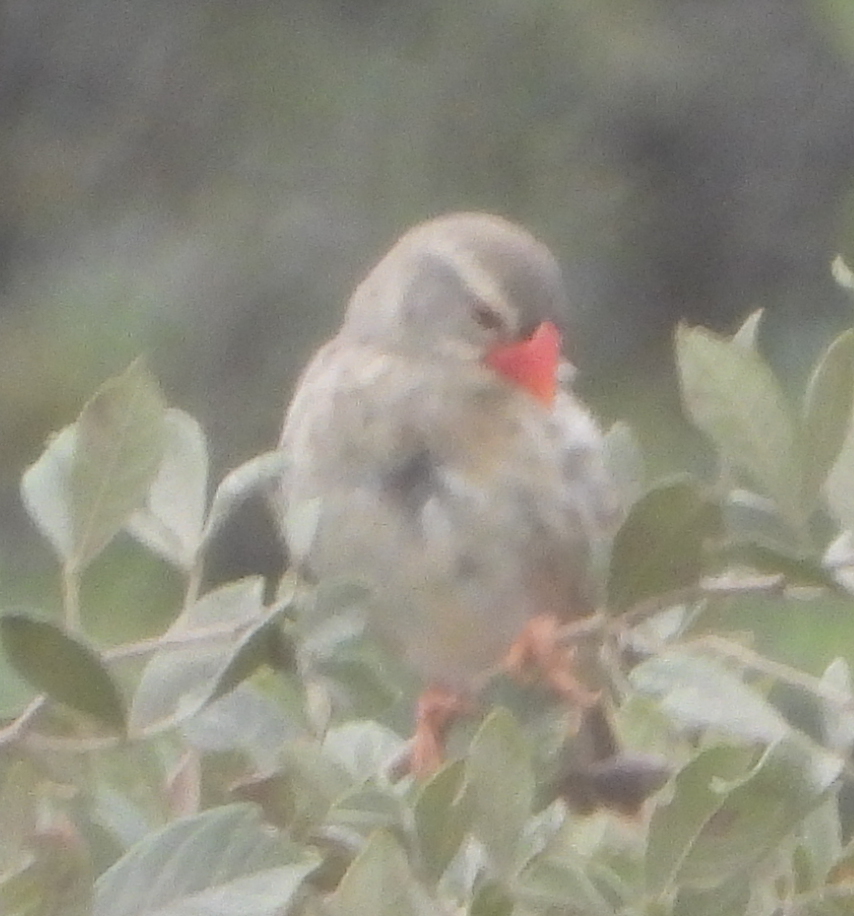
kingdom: Animalia
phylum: Chordata
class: Aves
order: Passeriformes
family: Ploceidae
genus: Quelea
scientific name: Quelea quelea
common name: Red-billed quelea
